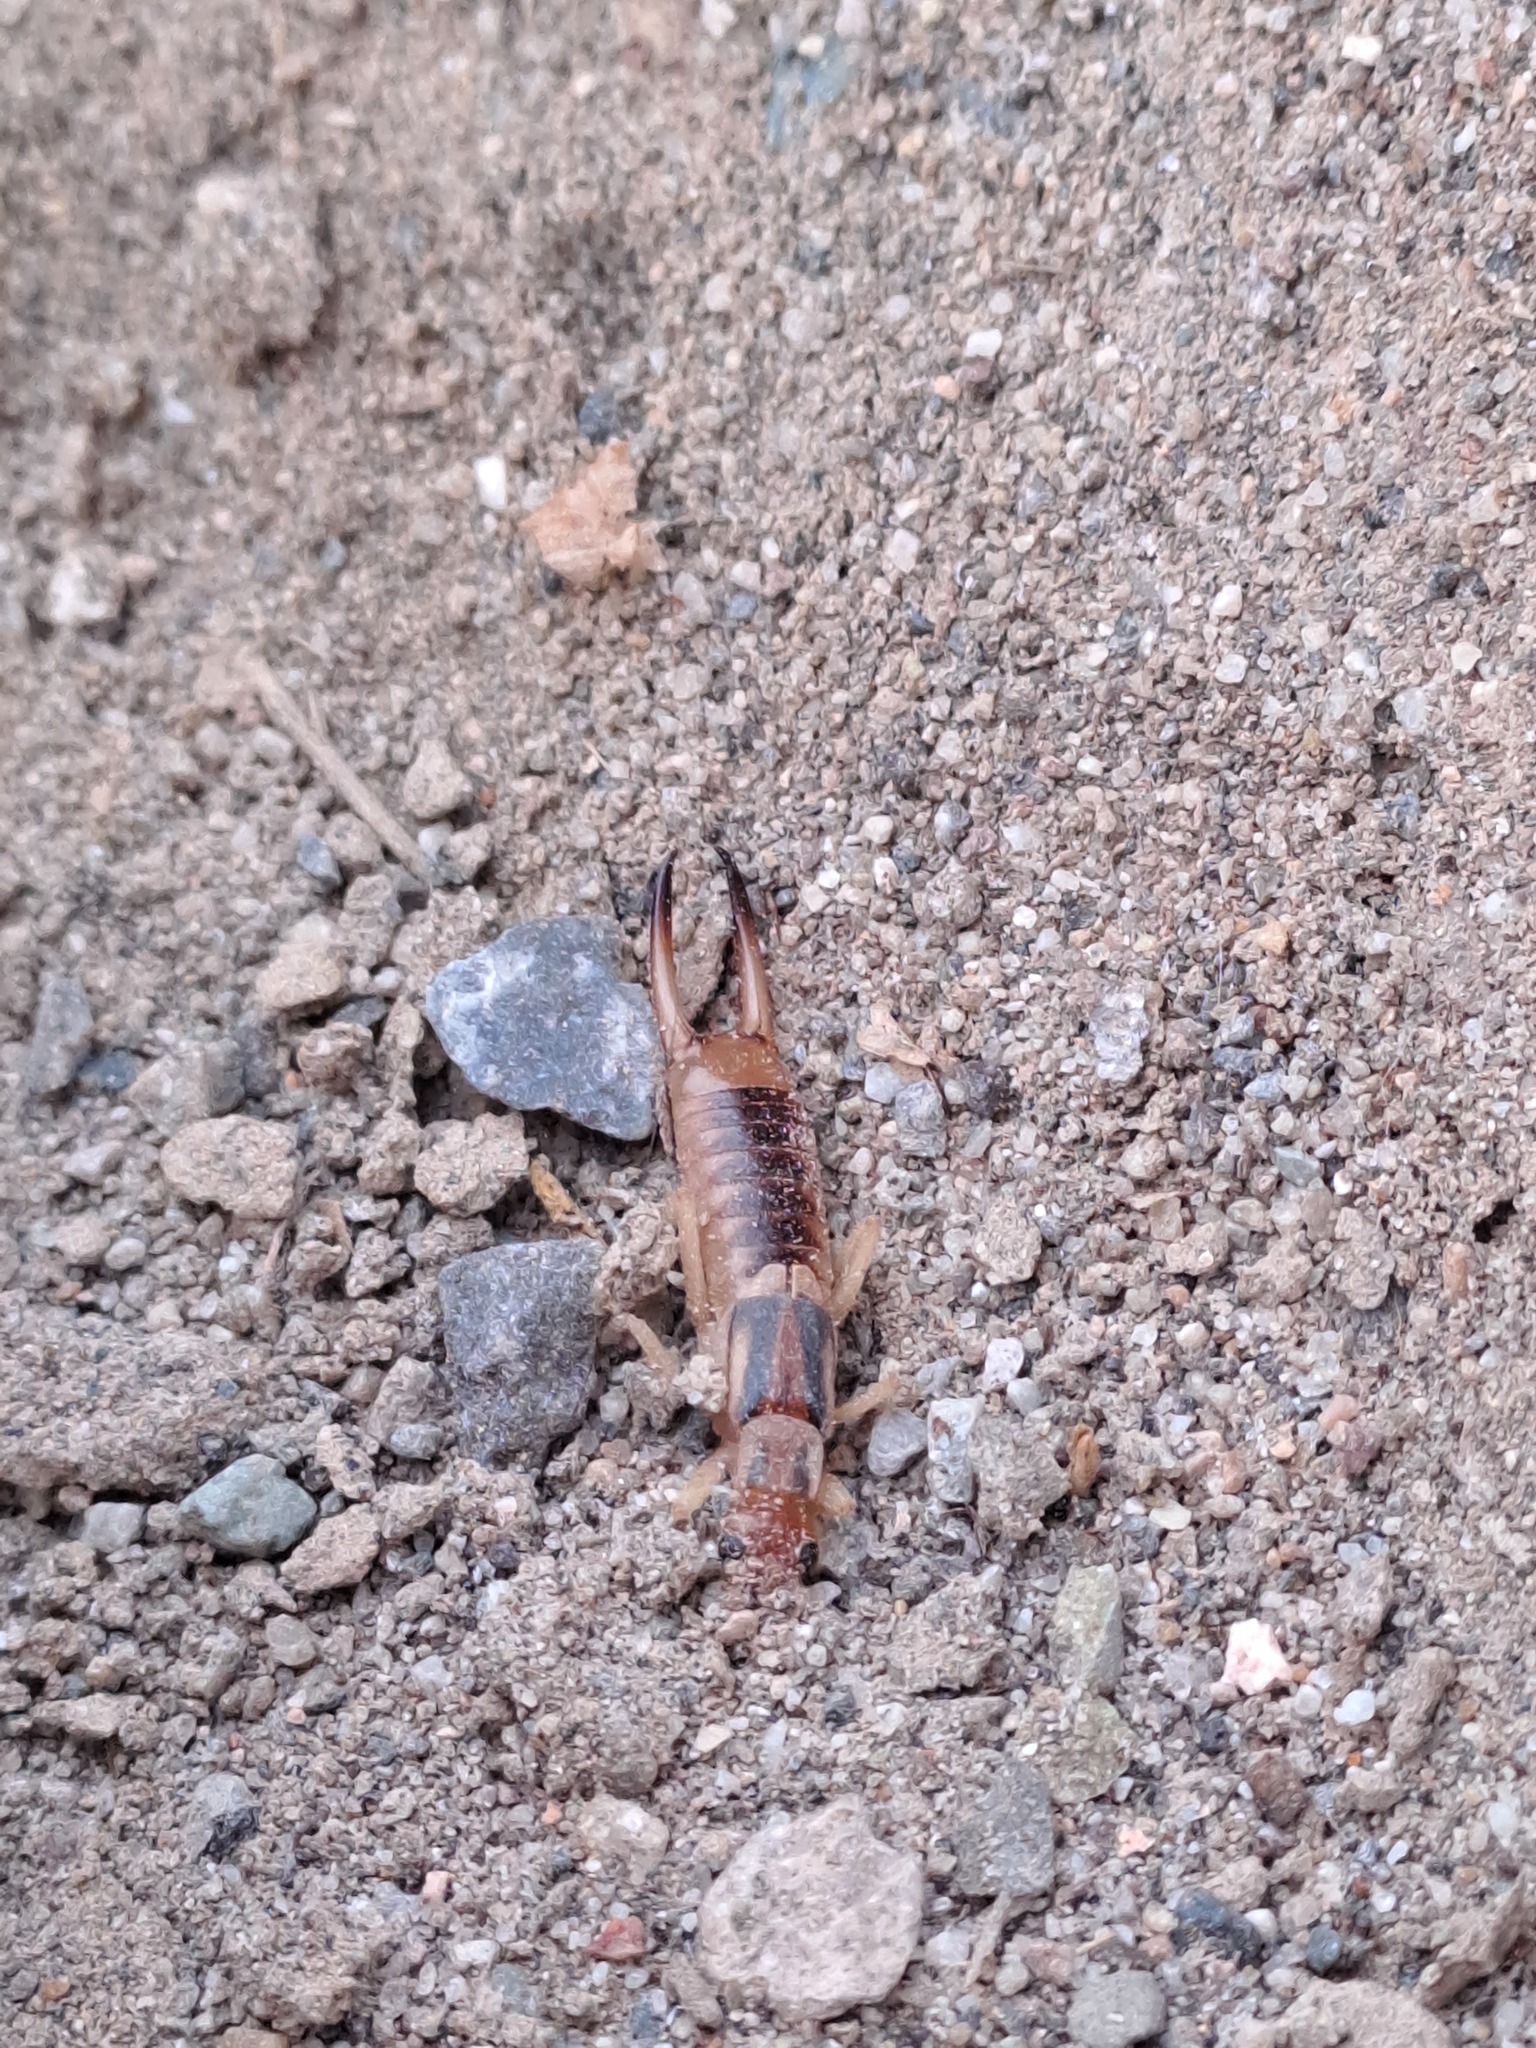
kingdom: Animalia
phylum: Arthropoda
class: Insecta
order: Dermaptera
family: Labiduridae
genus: Labidura
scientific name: Labidura riparia
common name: Striped earwig
